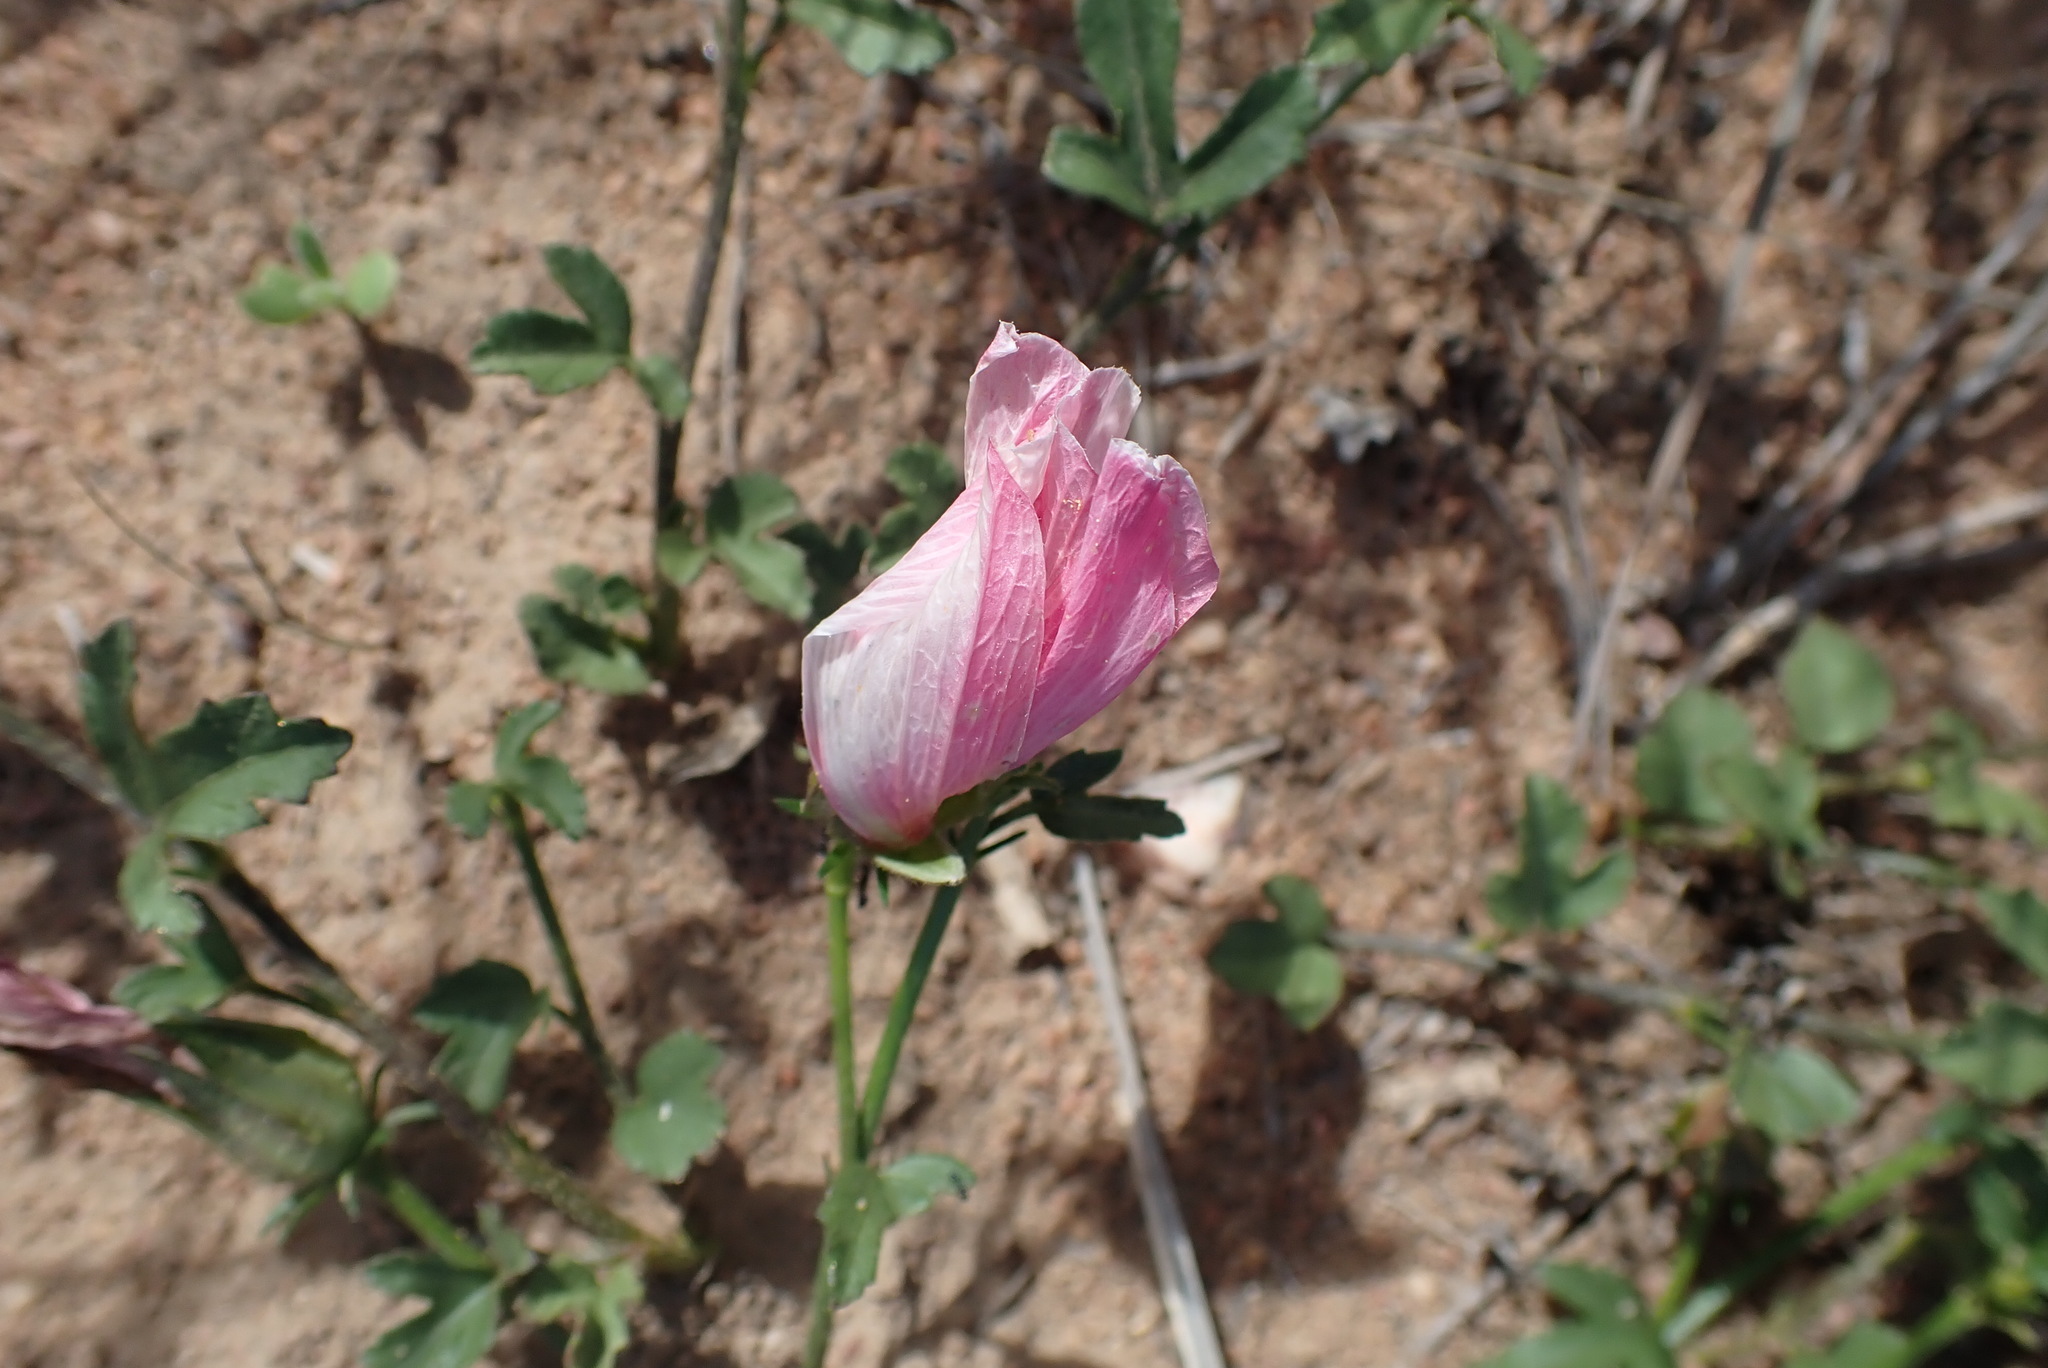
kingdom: Plantae
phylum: Tracheophyta
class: Magnoliopsida
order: Malvales
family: Malvaceae
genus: Hibiscus
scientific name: Hibiscus pusillus
